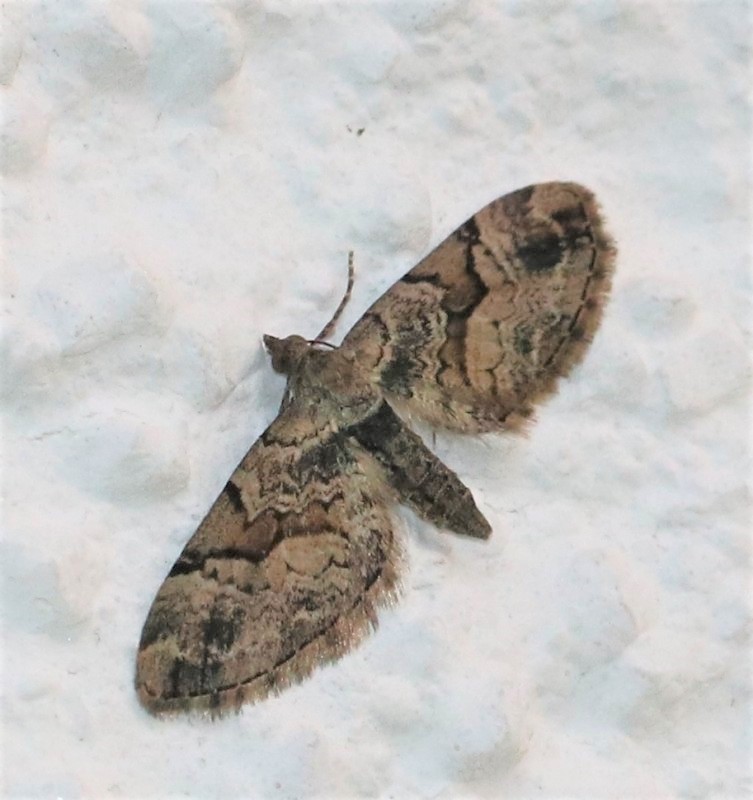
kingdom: Animalia
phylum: Arthropoda
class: Insecta
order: Lepidoptera
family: Geometridae
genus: Eupithecia
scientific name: Eupithecia sinuosaria
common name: Goosefoot pug
